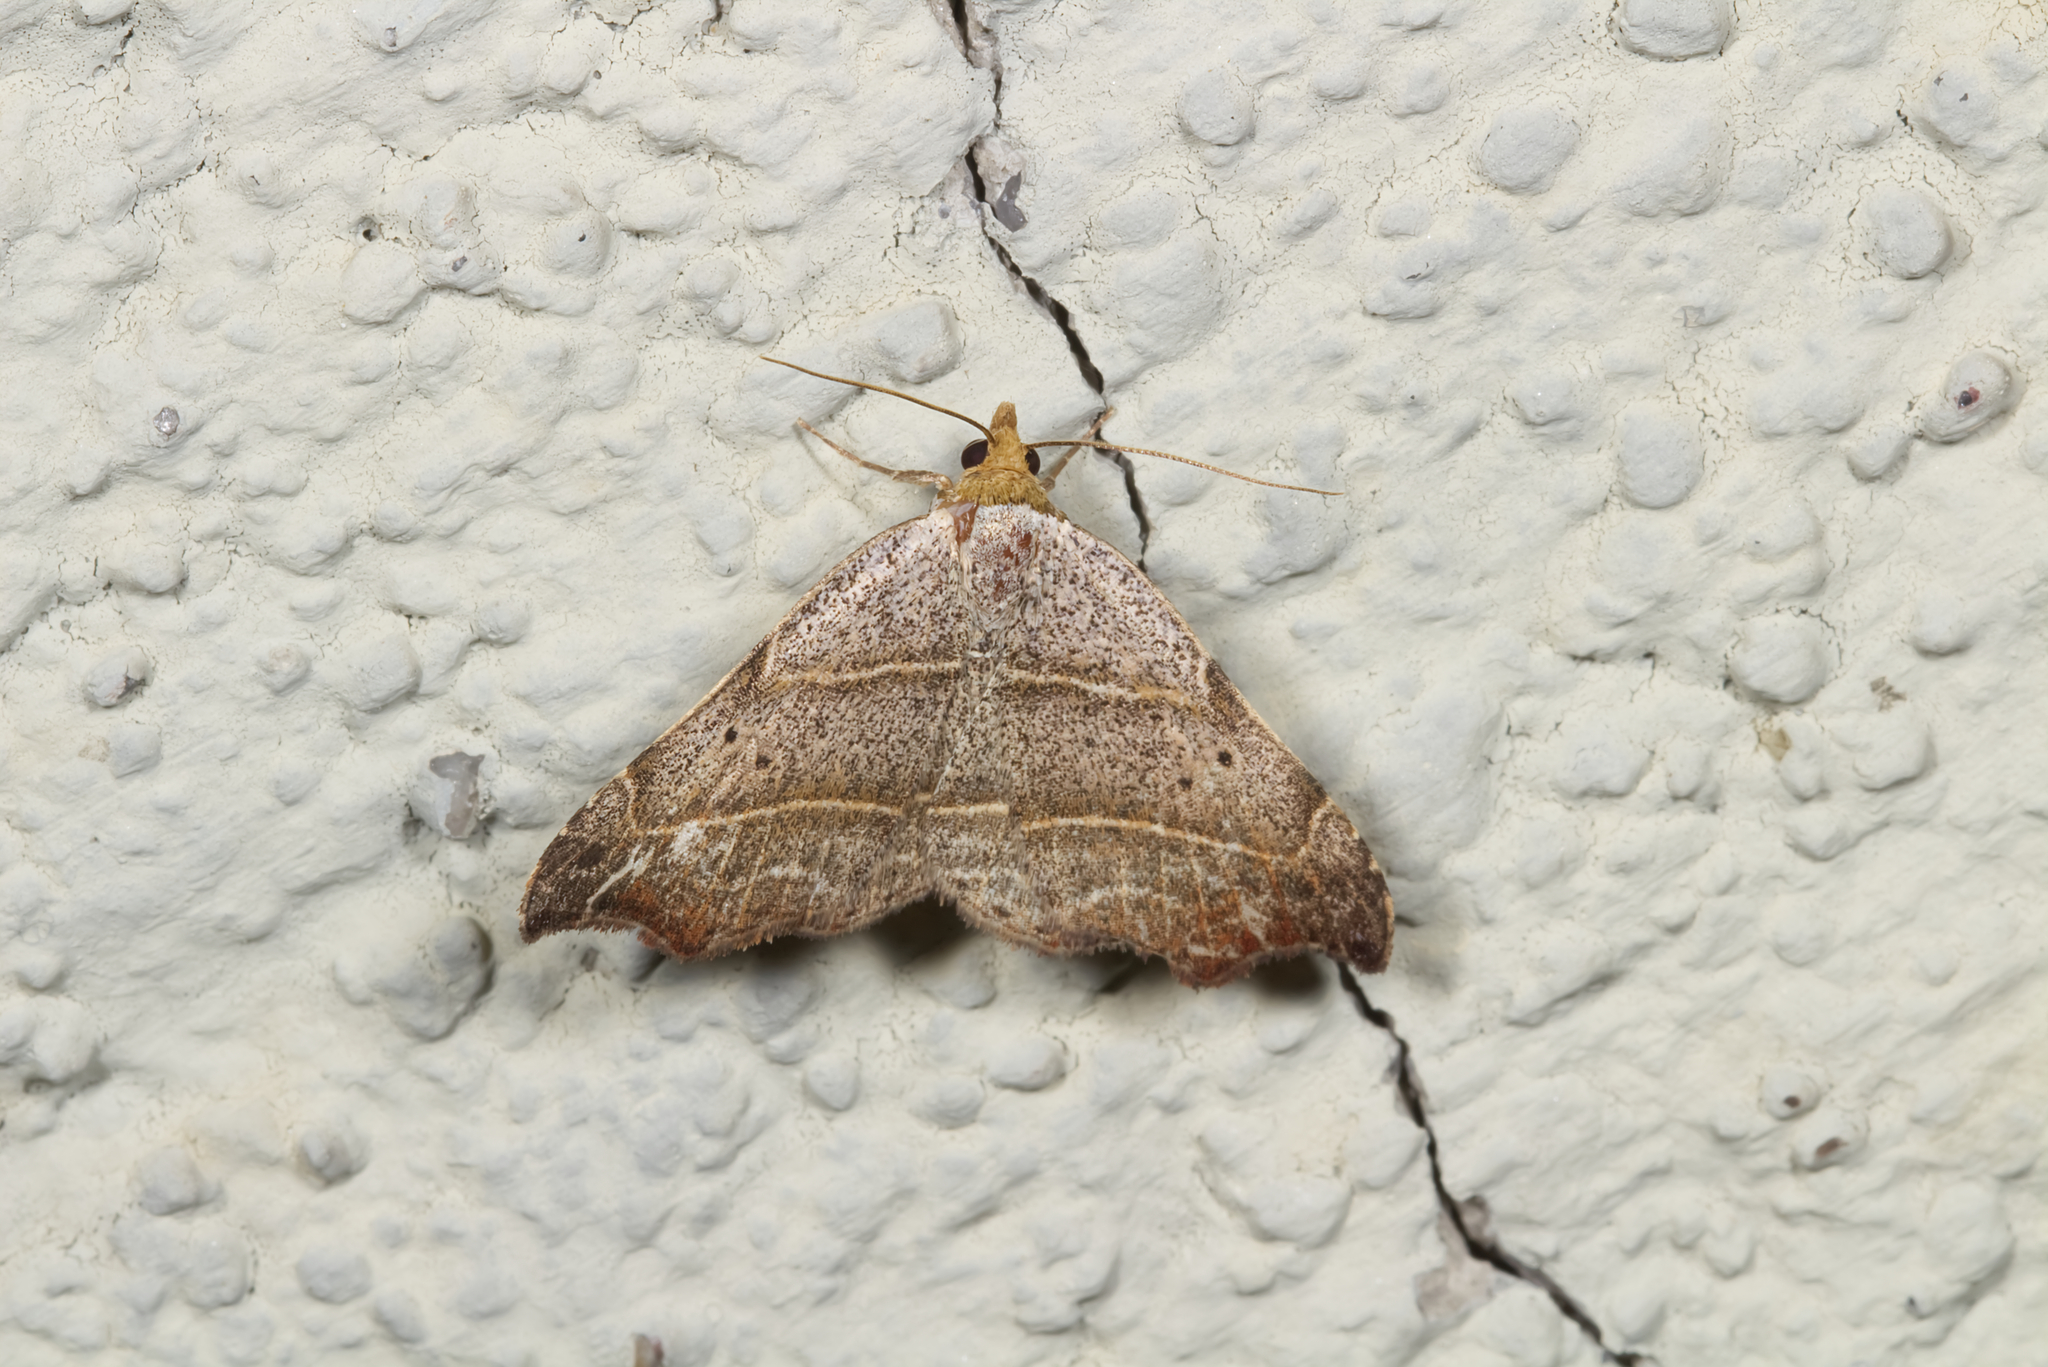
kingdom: Animalia
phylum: Arthropoda
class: Insecta
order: Lepidoptera
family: Erebidae
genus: Laspeyria
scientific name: Laspeyria flexula
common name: Beautiful hook-tip
